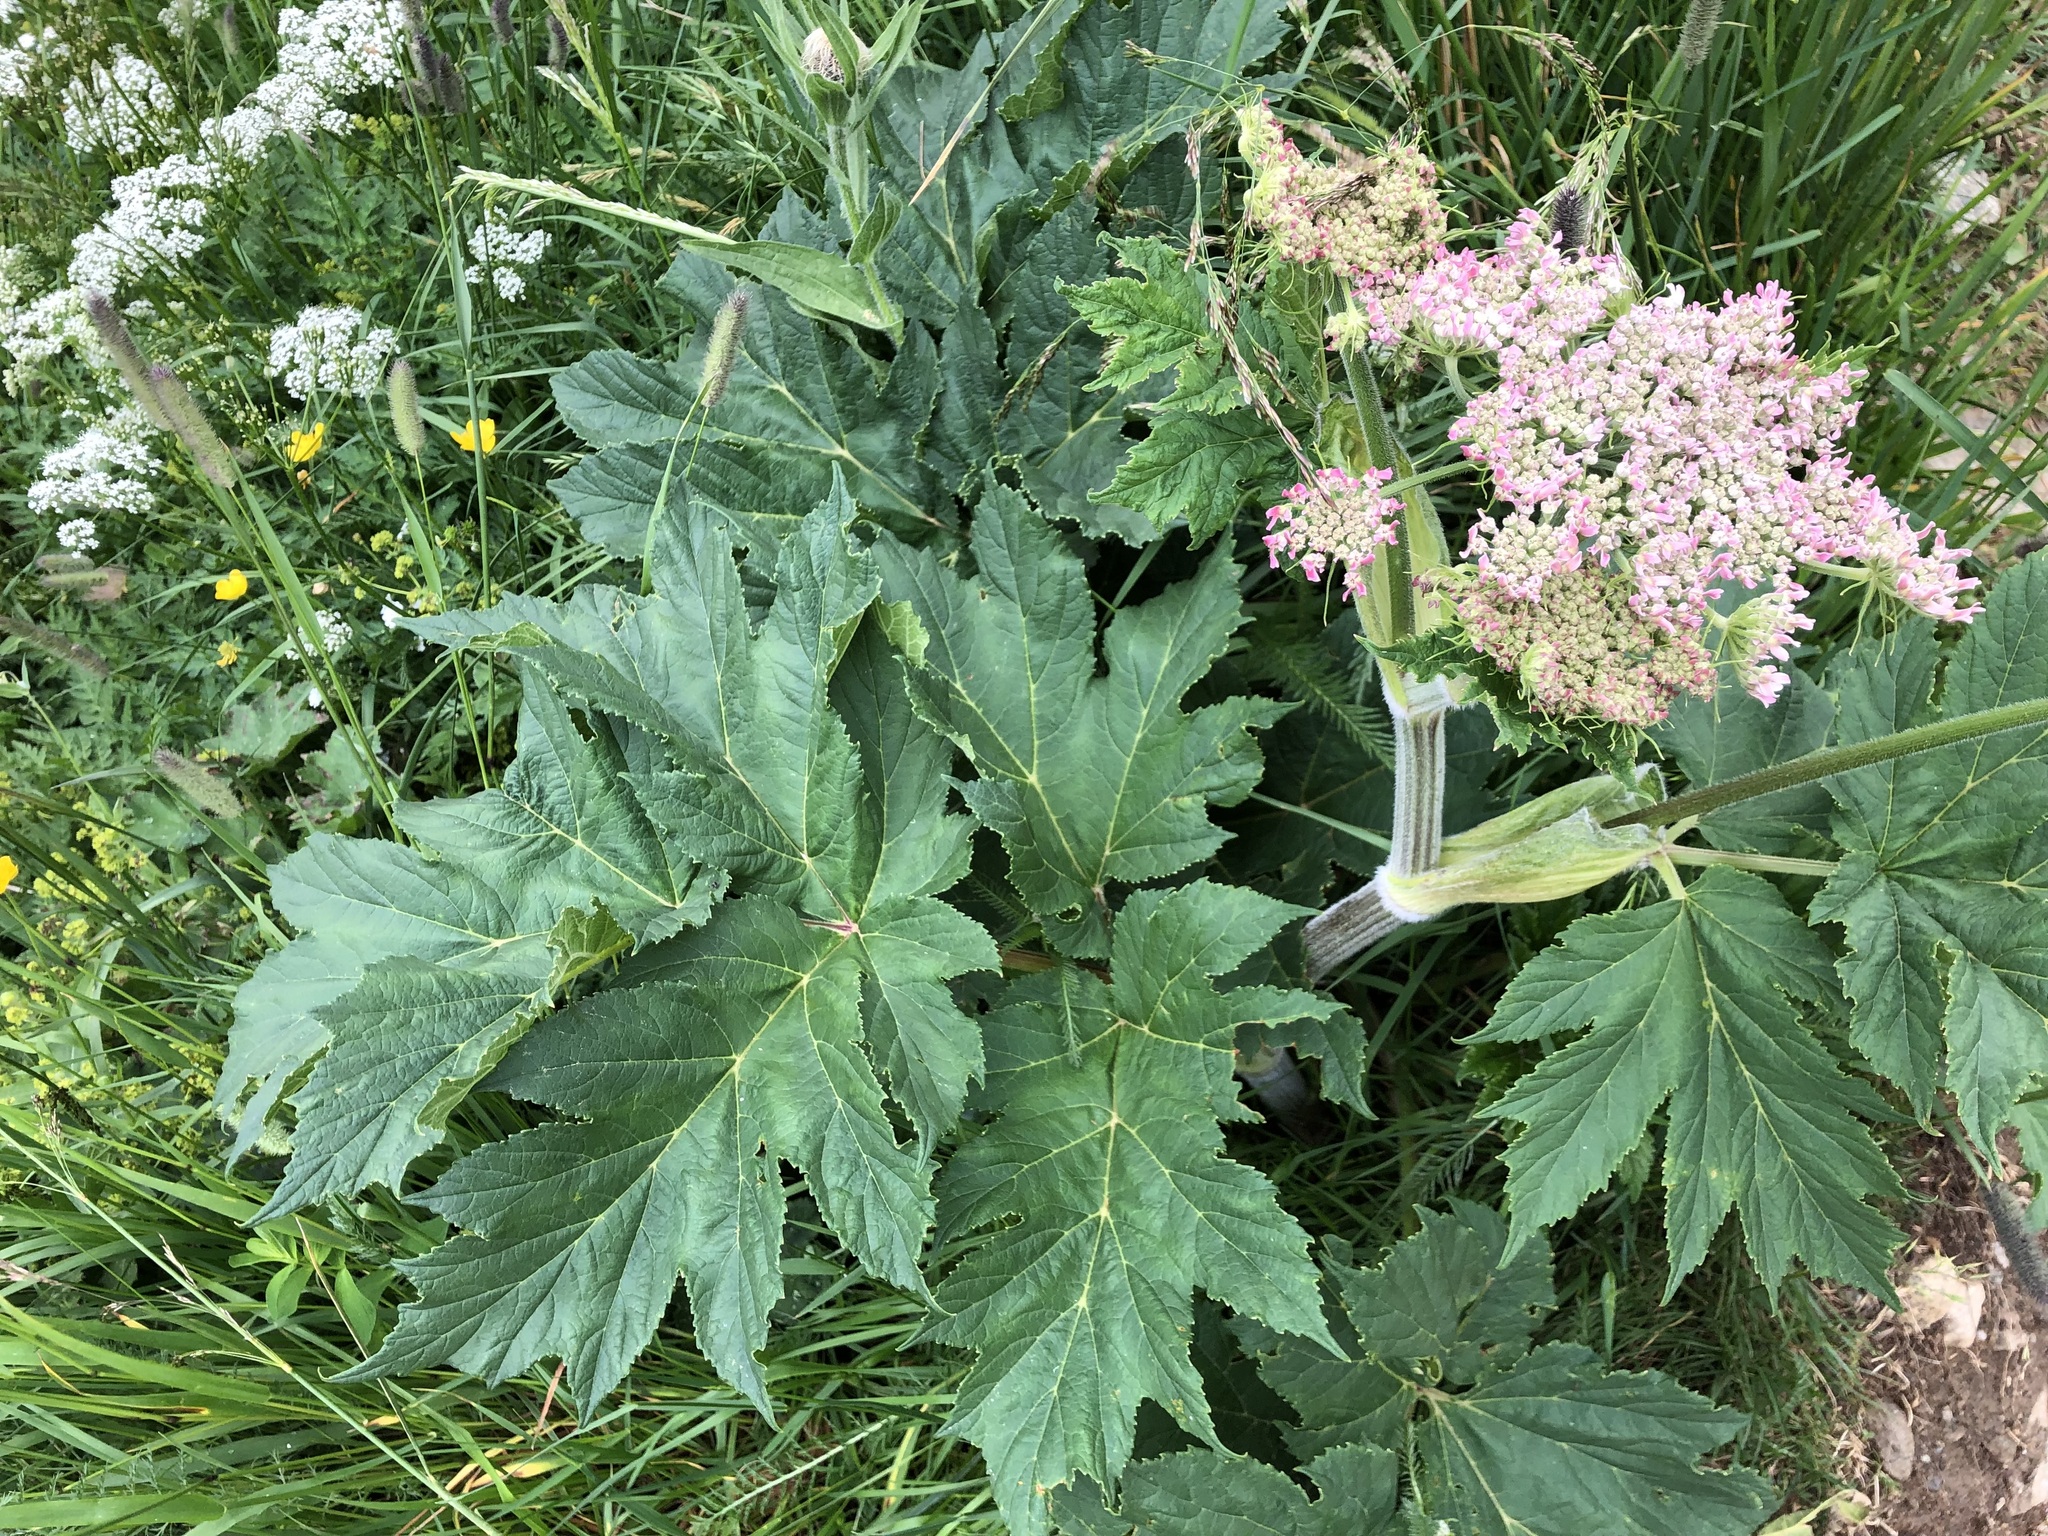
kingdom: Plantae
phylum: Tracheophyta
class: Magnoliopsida
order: Apiales
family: Apiaceae
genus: Heracleum
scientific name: Heracleum sphondylium
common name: Hogweed
